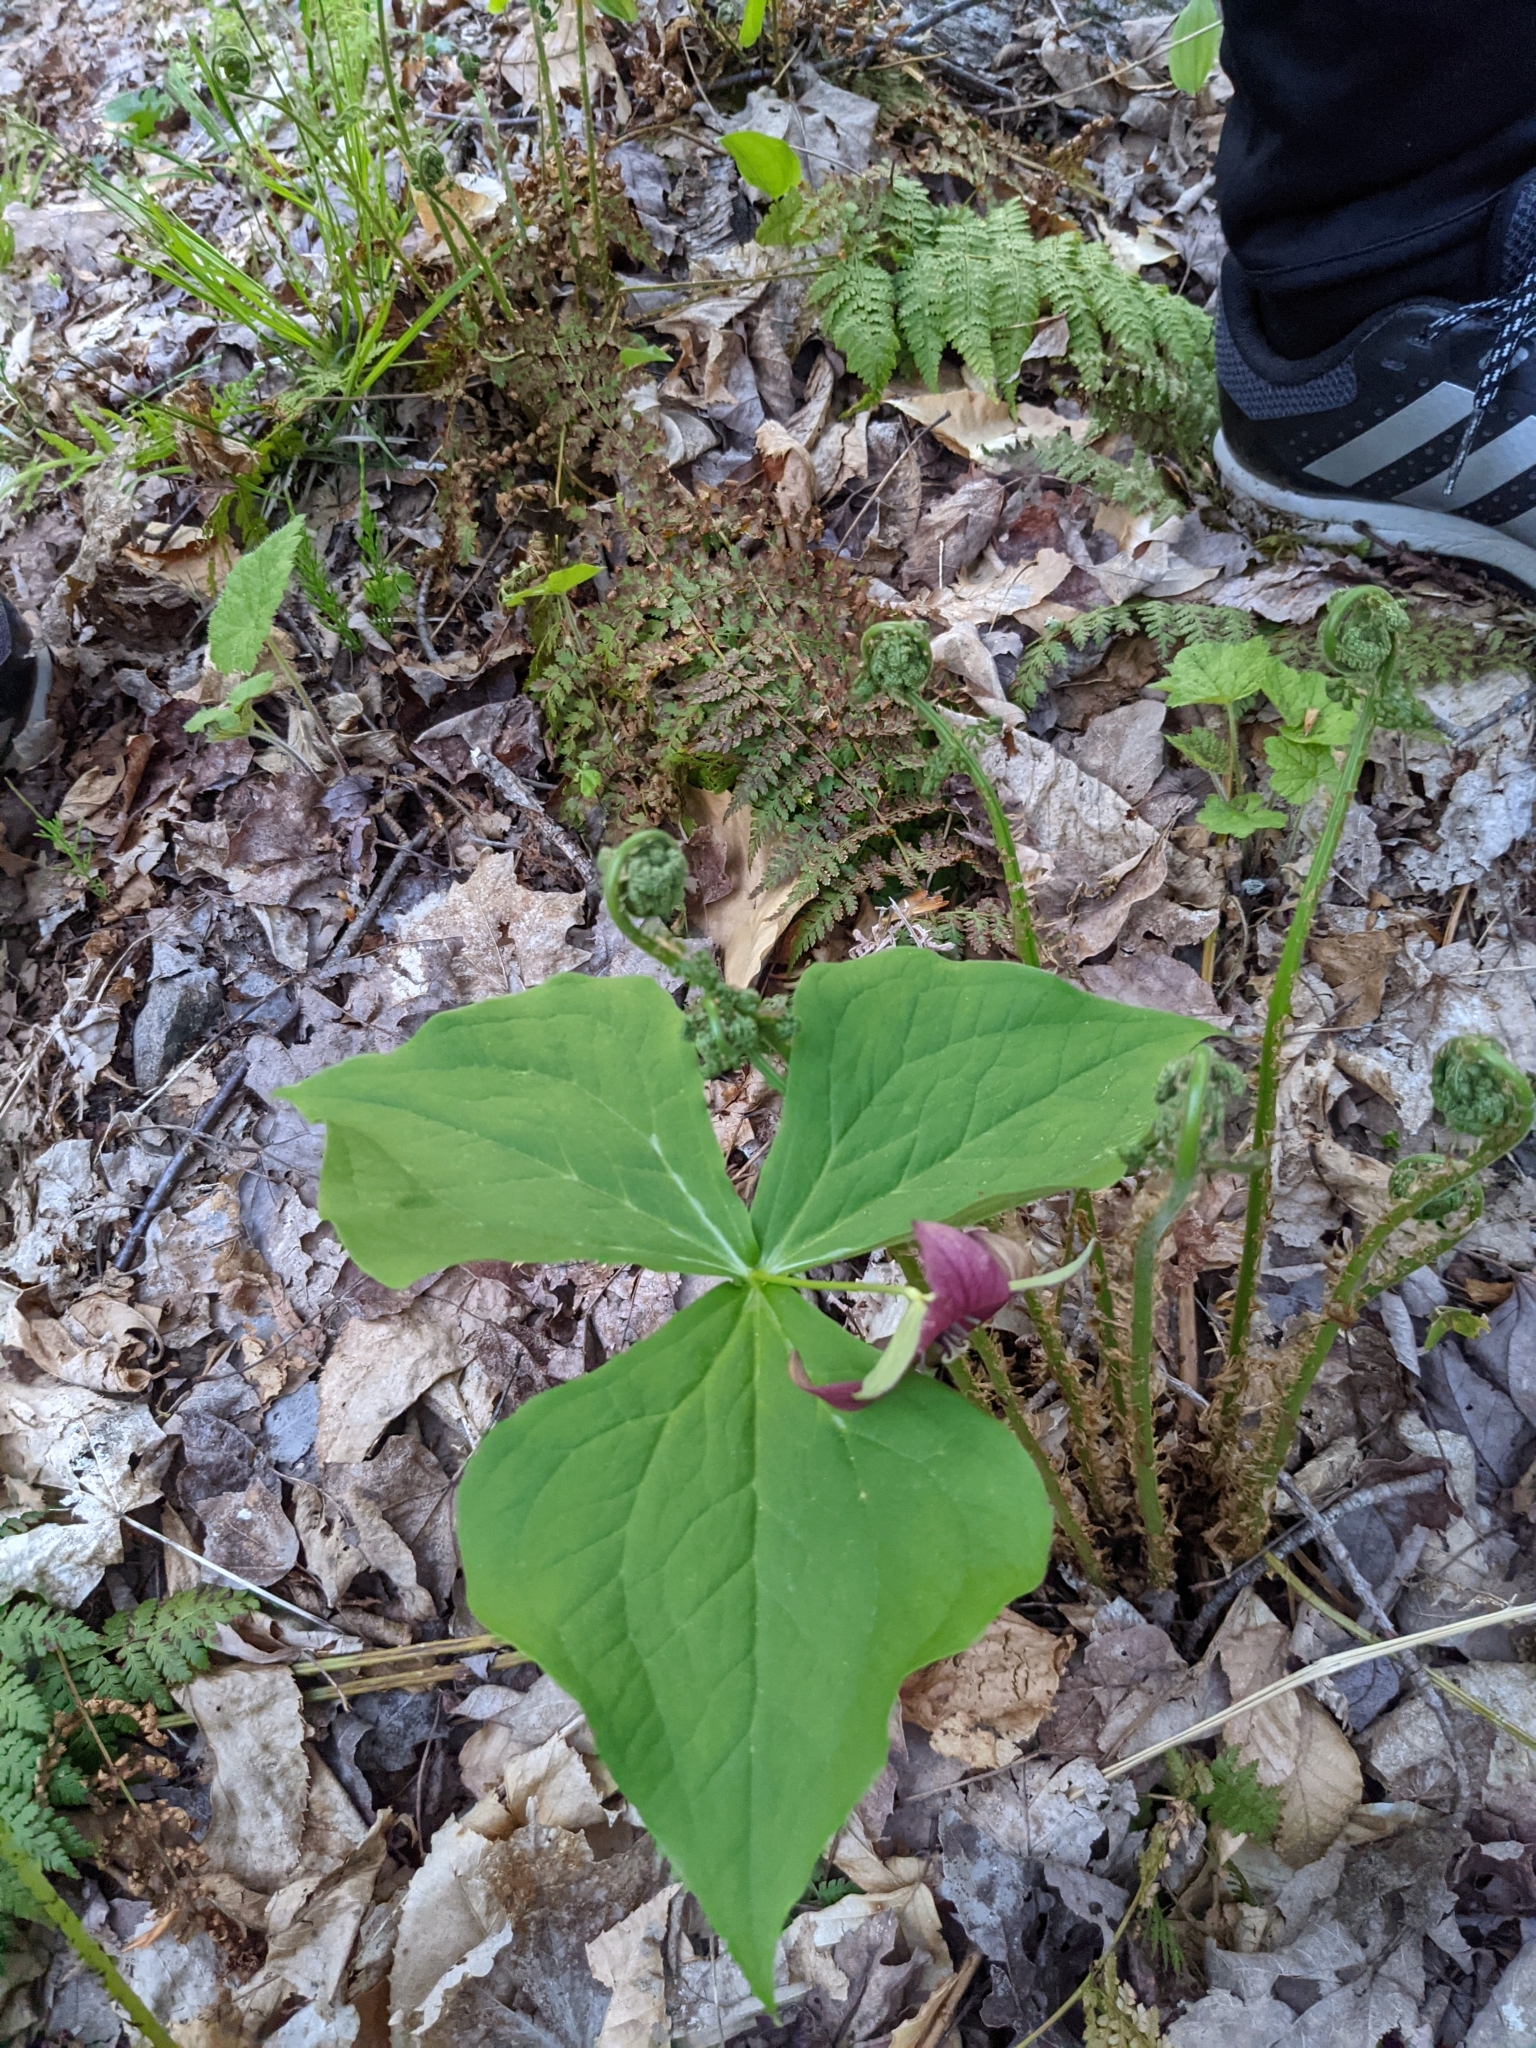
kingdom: Plantae
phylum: Tracheophyta
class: Liliopsida
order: Liliales
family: Melanthiaceae
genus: Trillium
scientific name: Trillium erectum
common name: Purple trillium
